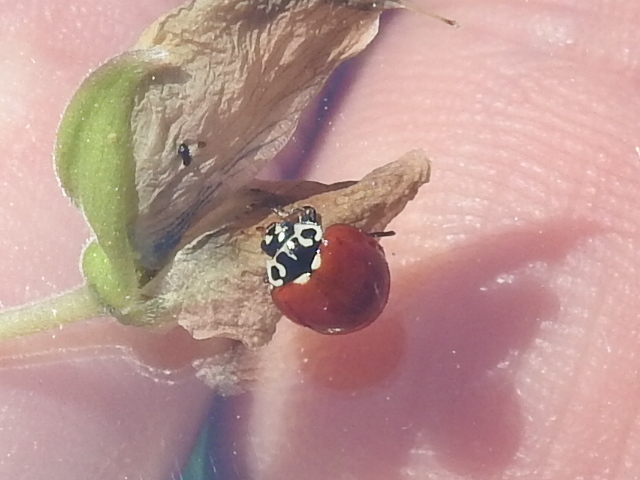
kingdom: Animalia
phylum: Arthropoda
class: Insecta
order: Coleoptera
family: Coccinellidae
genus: Cycloneda
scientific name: Cycloneda polita
